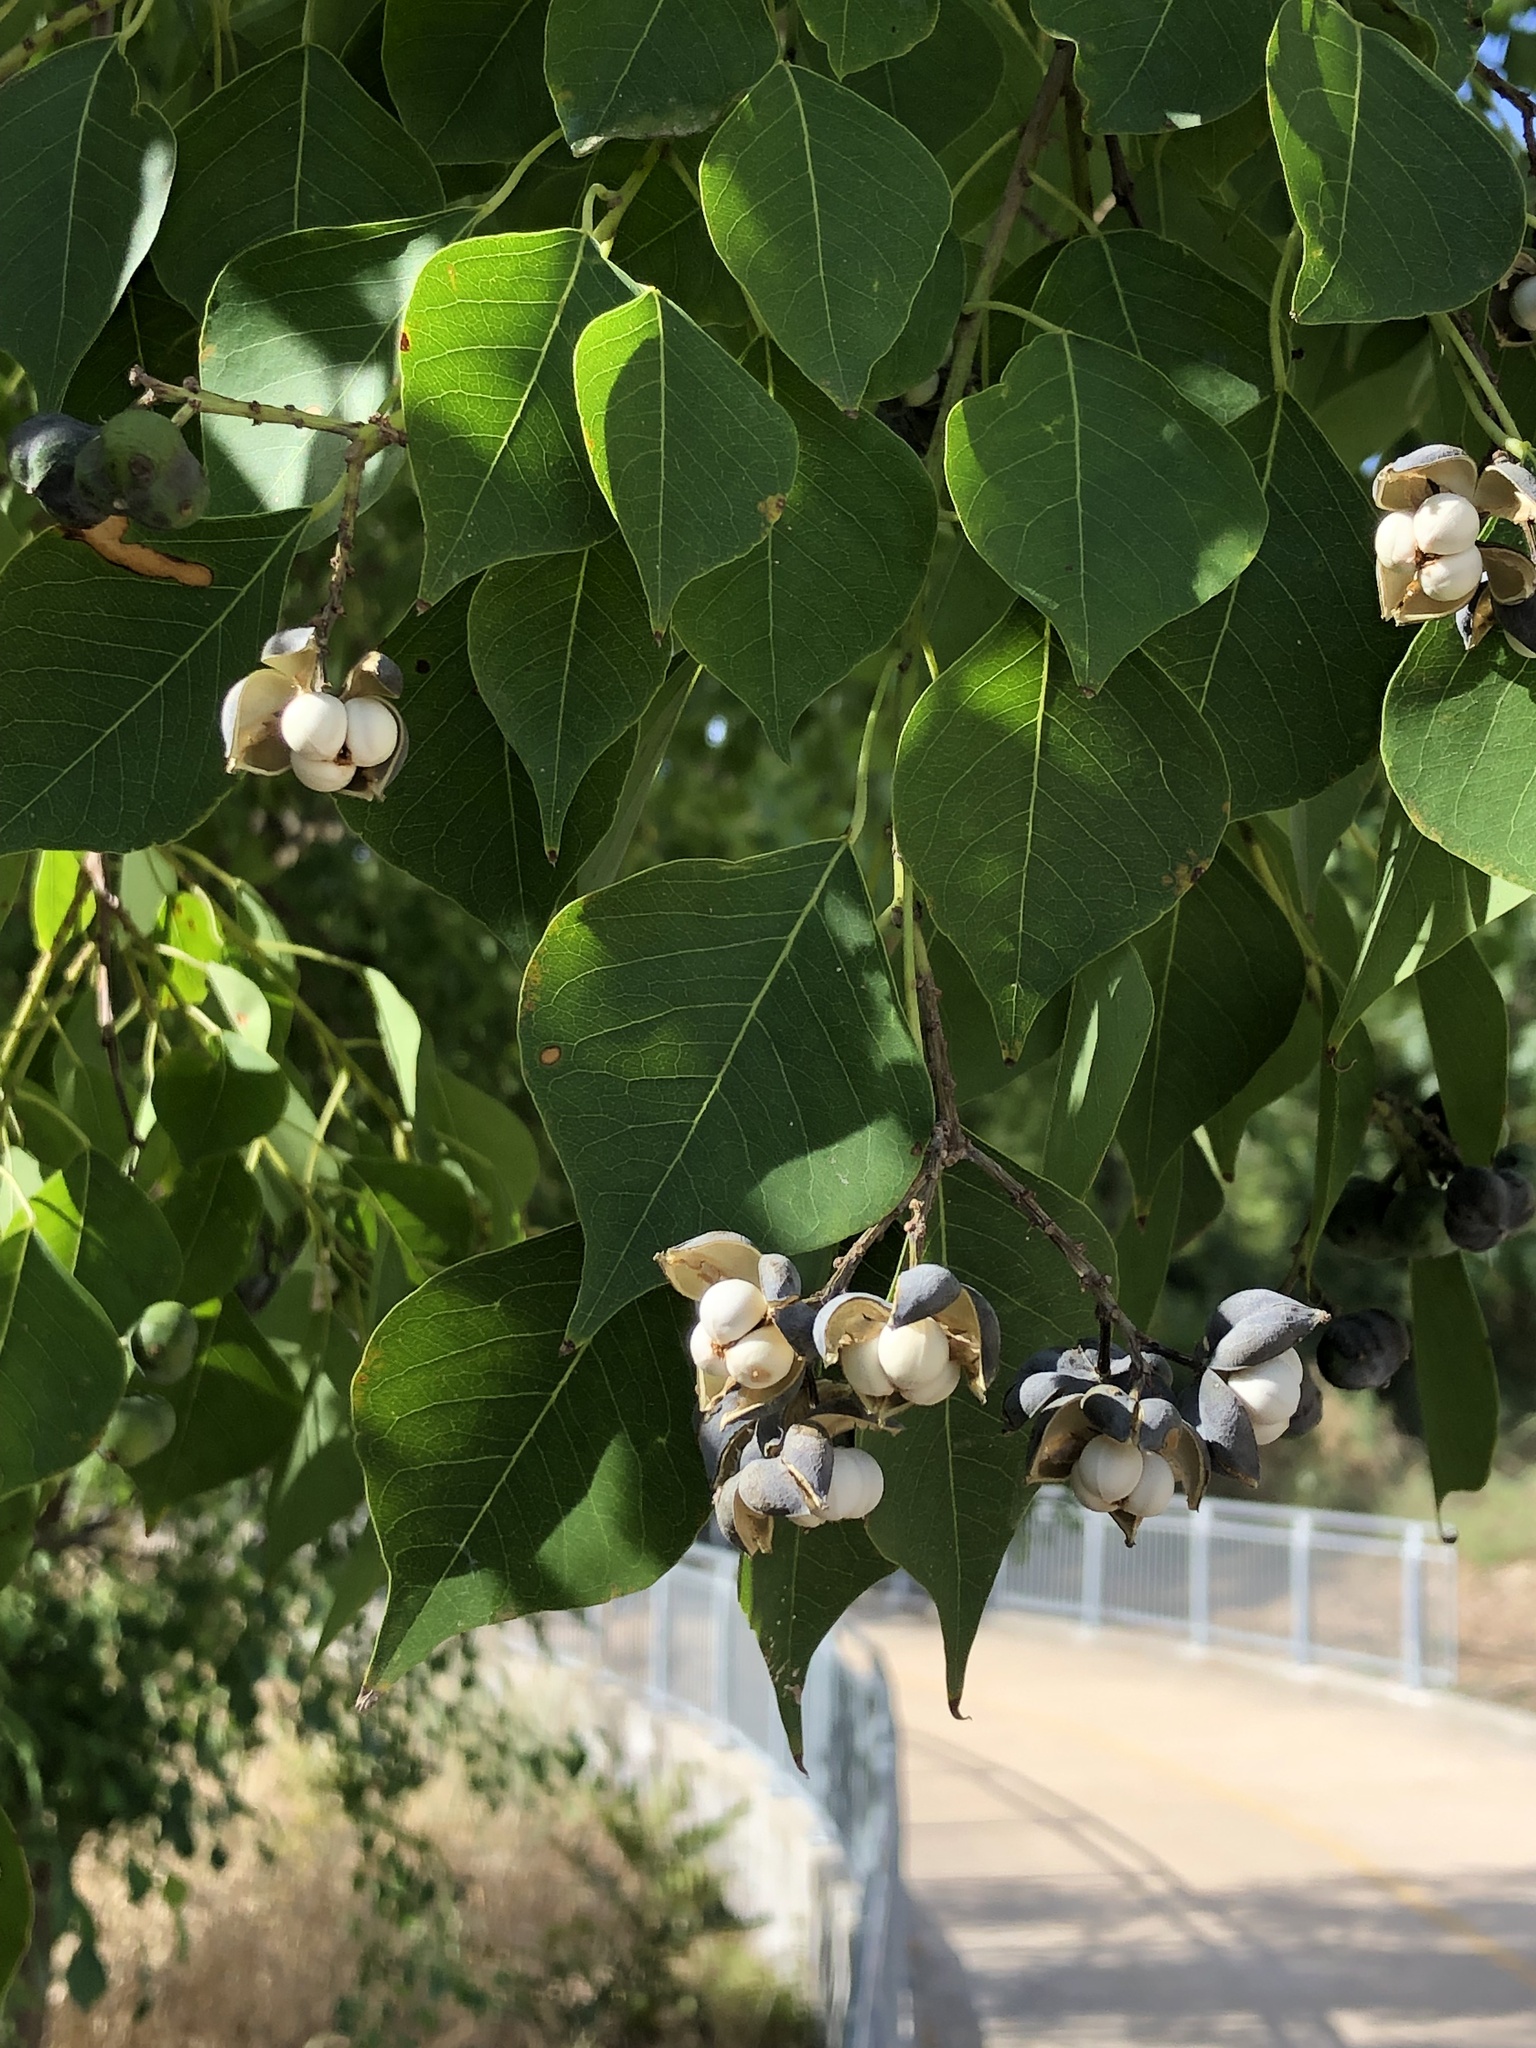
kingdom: Plantae
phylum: Tracheophyta
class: Magnoliopsida
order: Malpighiales
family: Euphorbiaceae
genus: Triadica
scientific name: Triadica sebifera
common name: Chinese tallow
